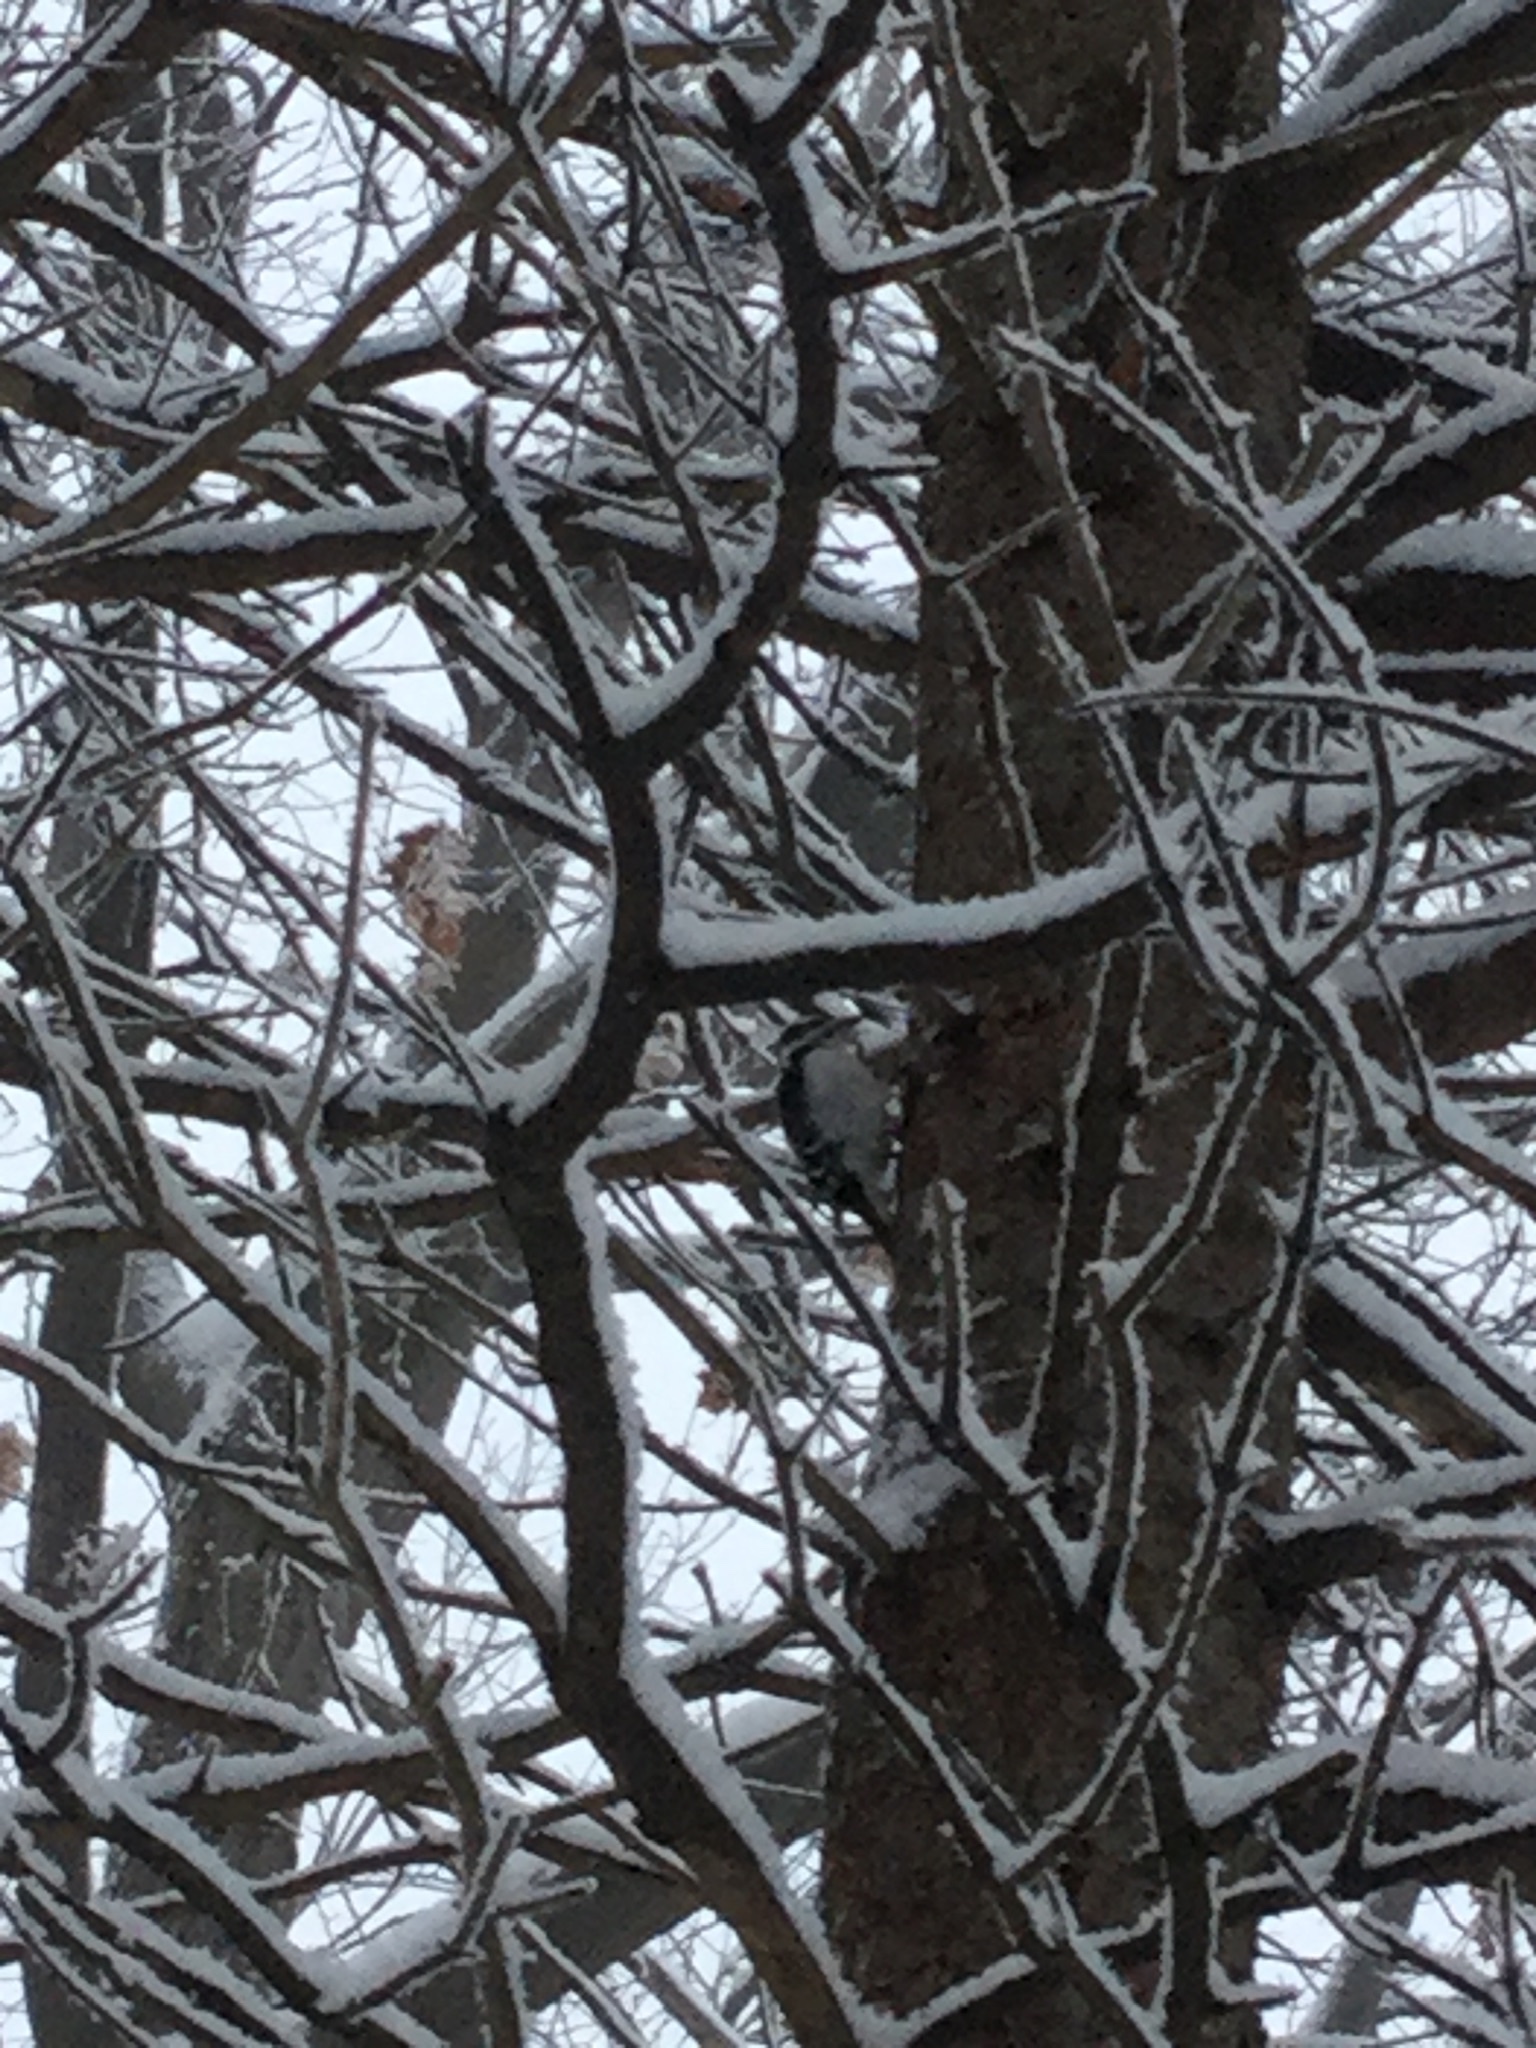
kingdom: Animalia
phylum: Chordata
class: Aves
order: Piciformes
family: Picidae
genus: Dryobates
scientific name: Dryobates pubescens
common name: Downy woodpecker
